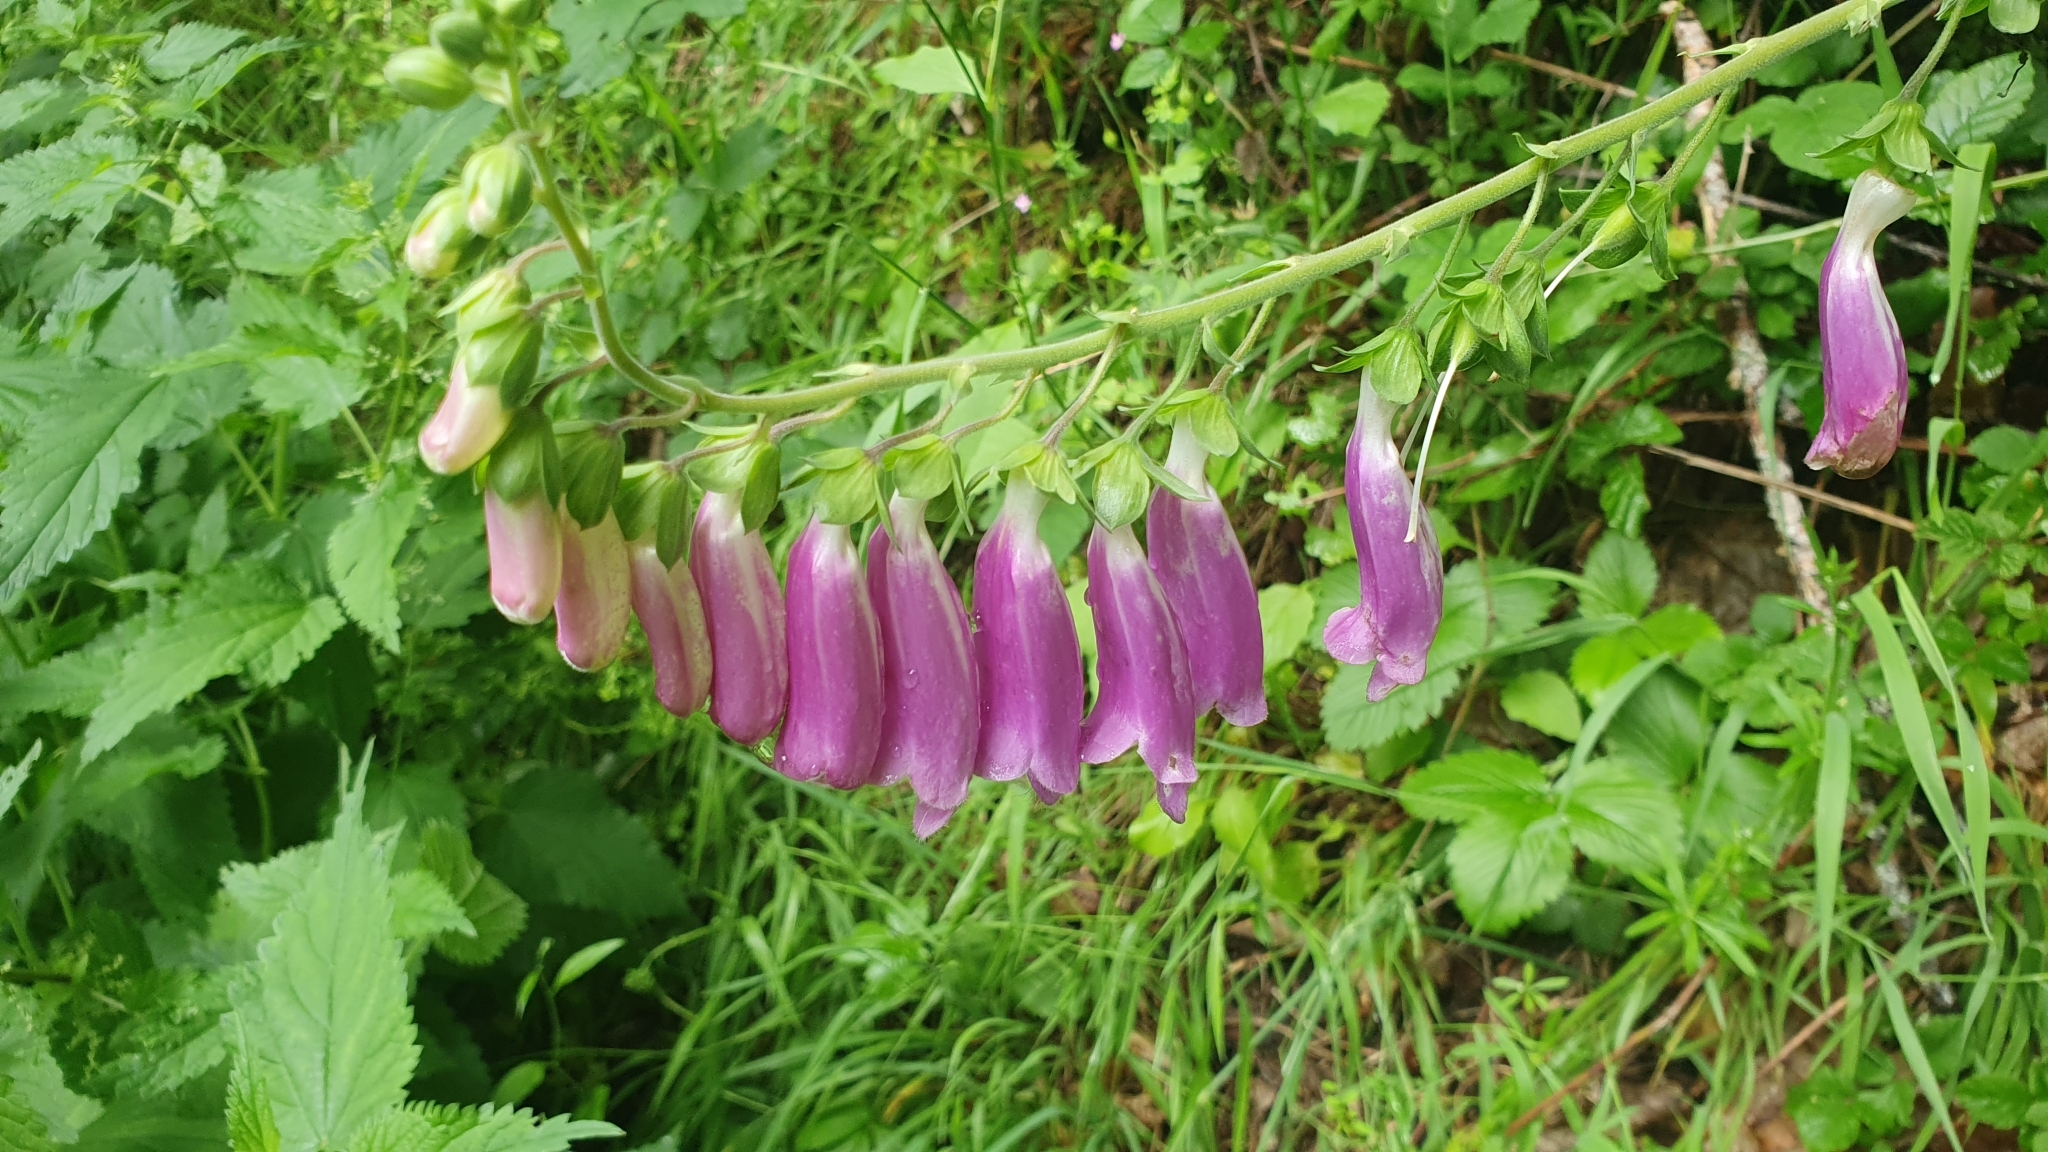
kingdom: Plantae
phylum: Tracheophyta
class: Magnoliopsida
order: Lamiales
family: Plantaginaceae
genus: Digitalis
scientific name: Digitalis purpurea
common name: Foxglove
